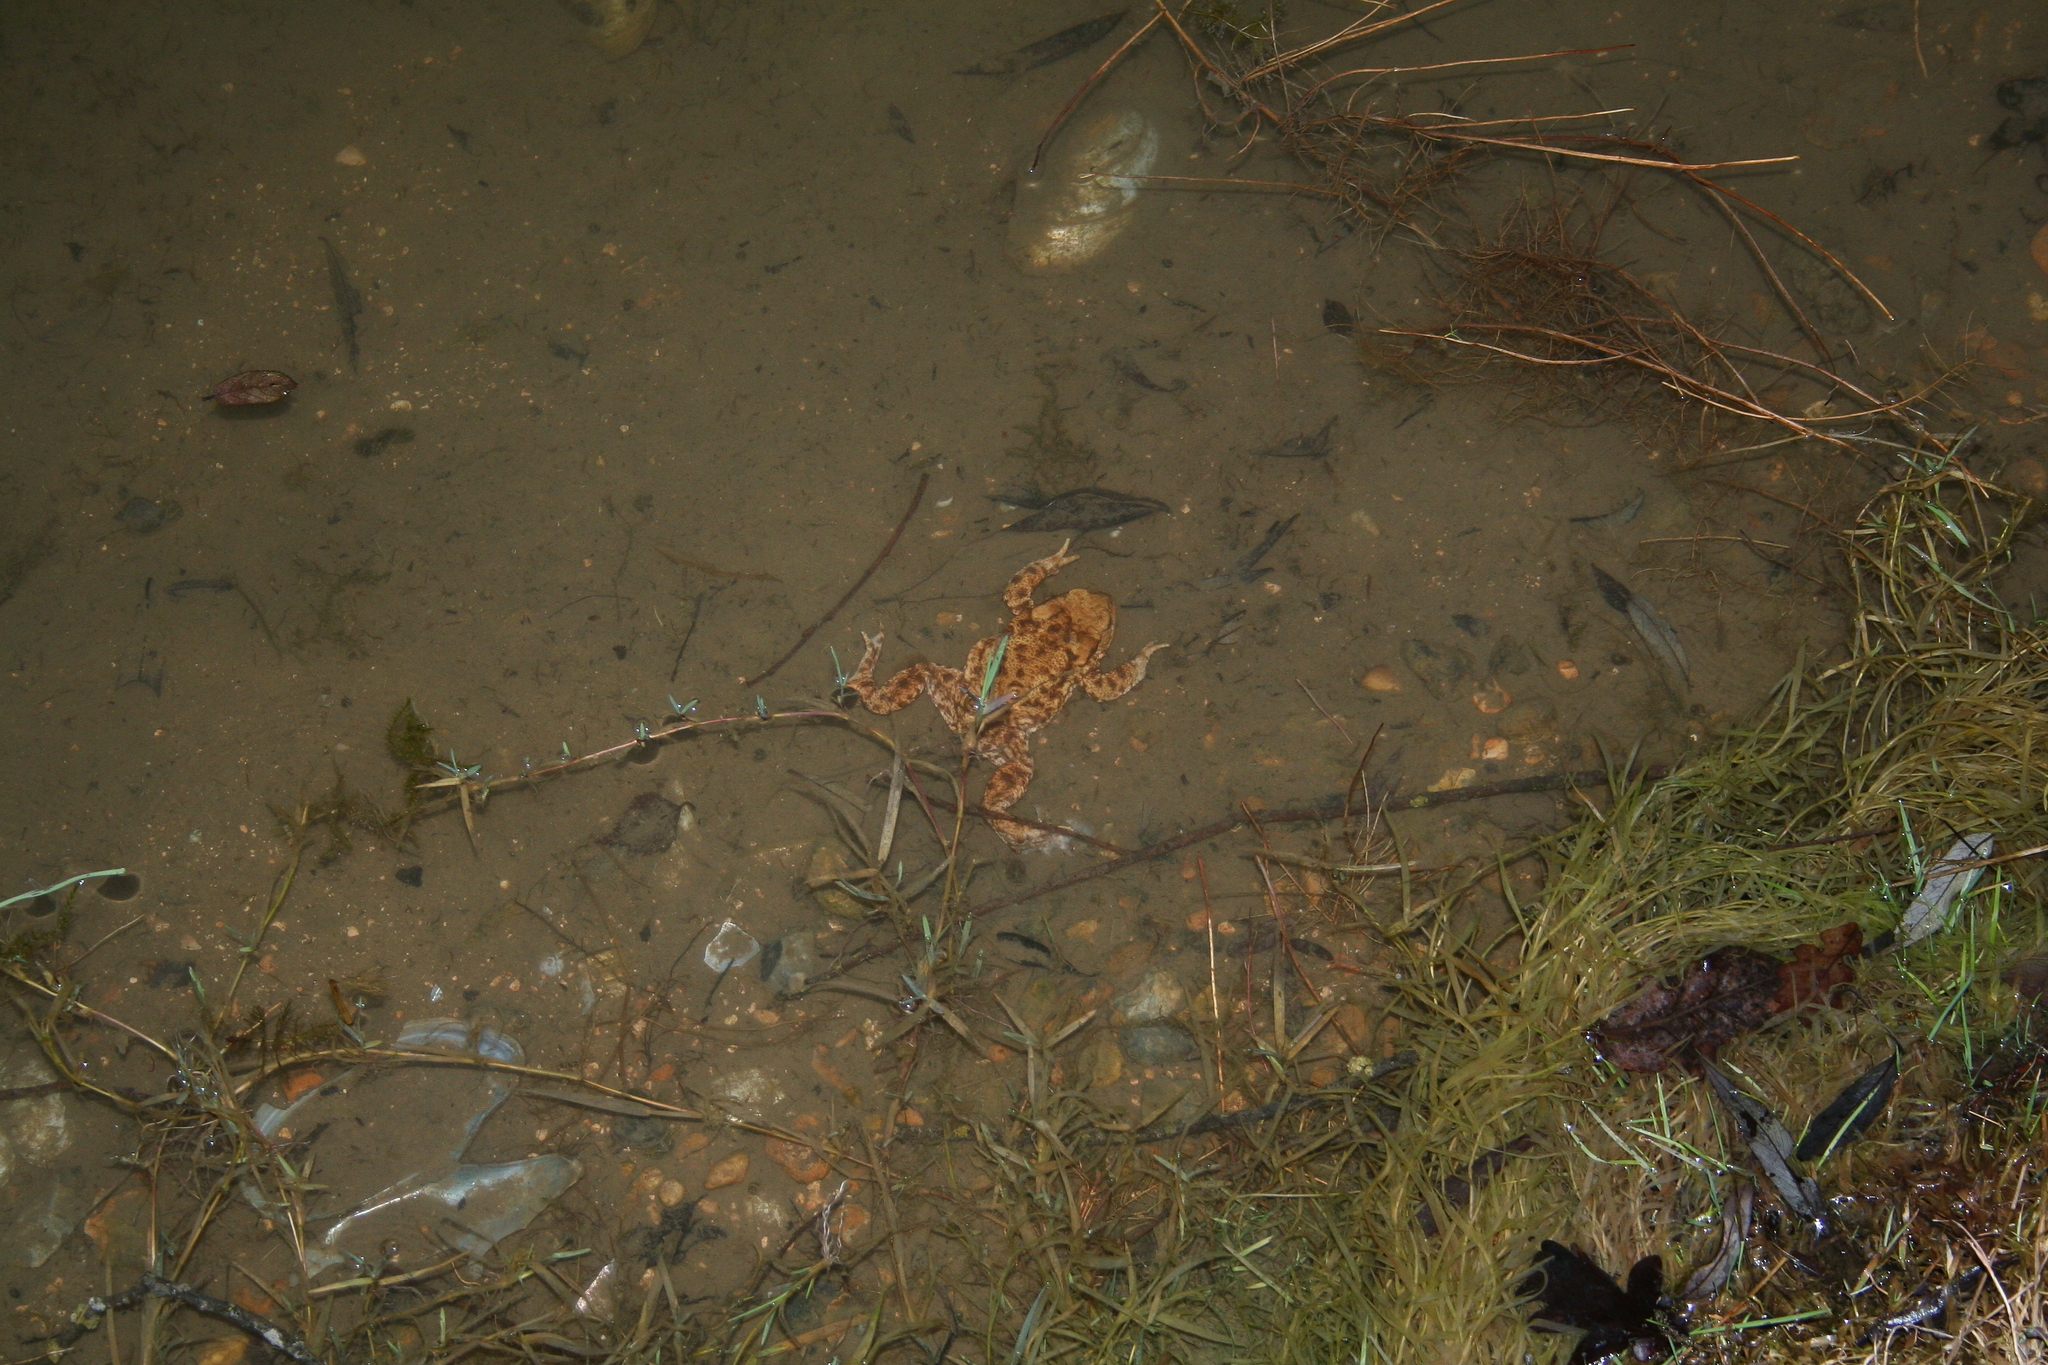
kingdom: Animalia
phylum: Chordata
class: Amphibia
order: Anura
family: Bufonidae
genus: Bufo
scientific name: Bufo bufo
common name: Common toad
